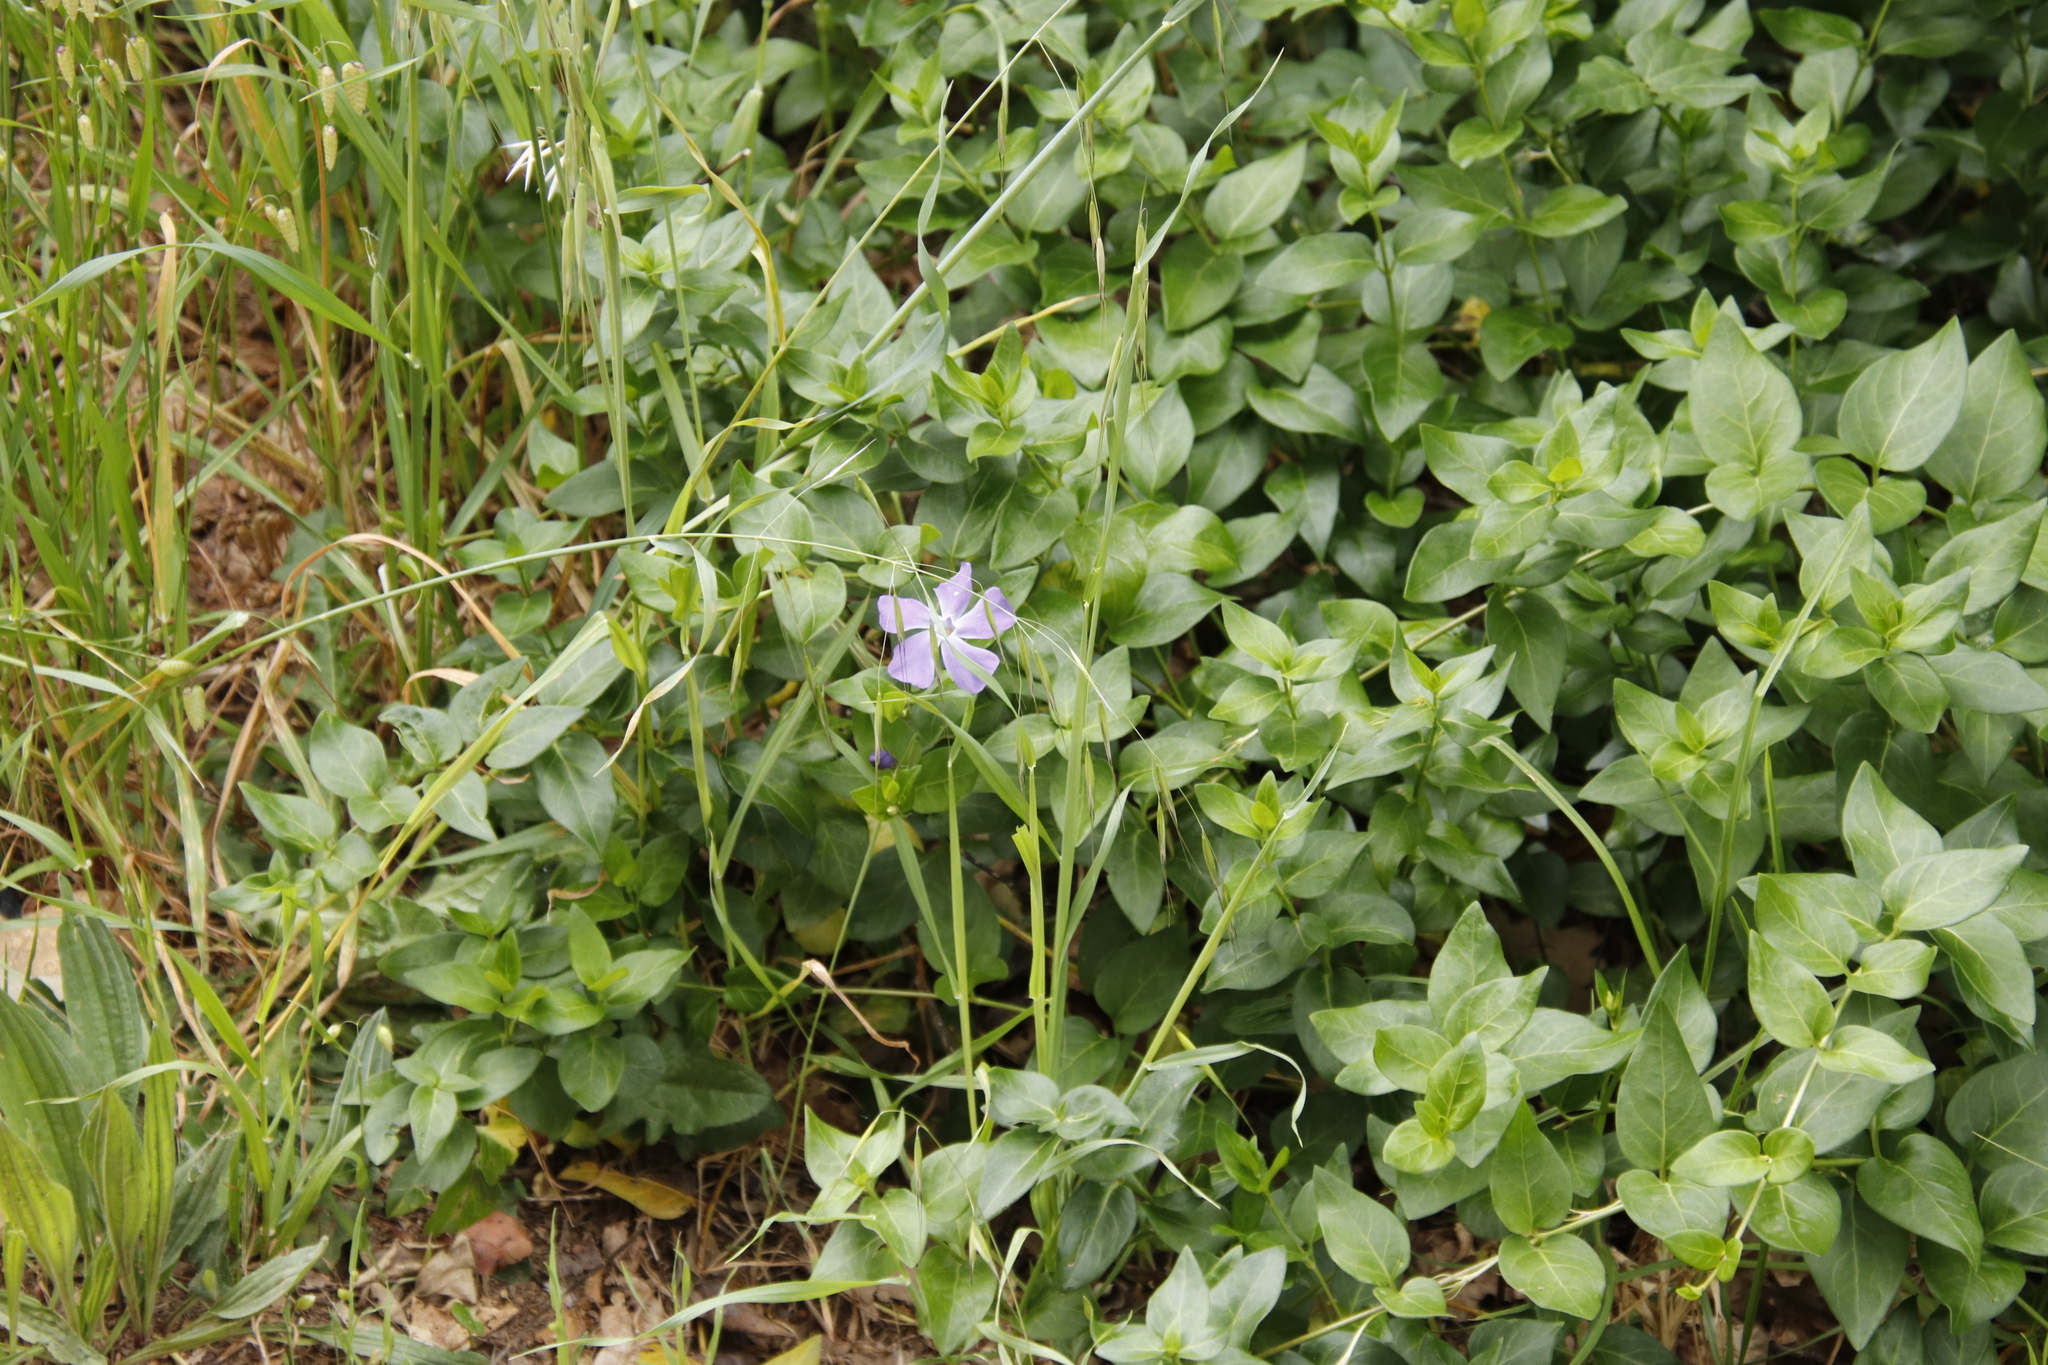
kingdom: Plantae
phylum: Tracheophyta
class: Magnoliopsida
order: Gentianales
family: Apocynaceae
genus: Vinca
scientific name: Vinca major
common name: Greater periwinkle
